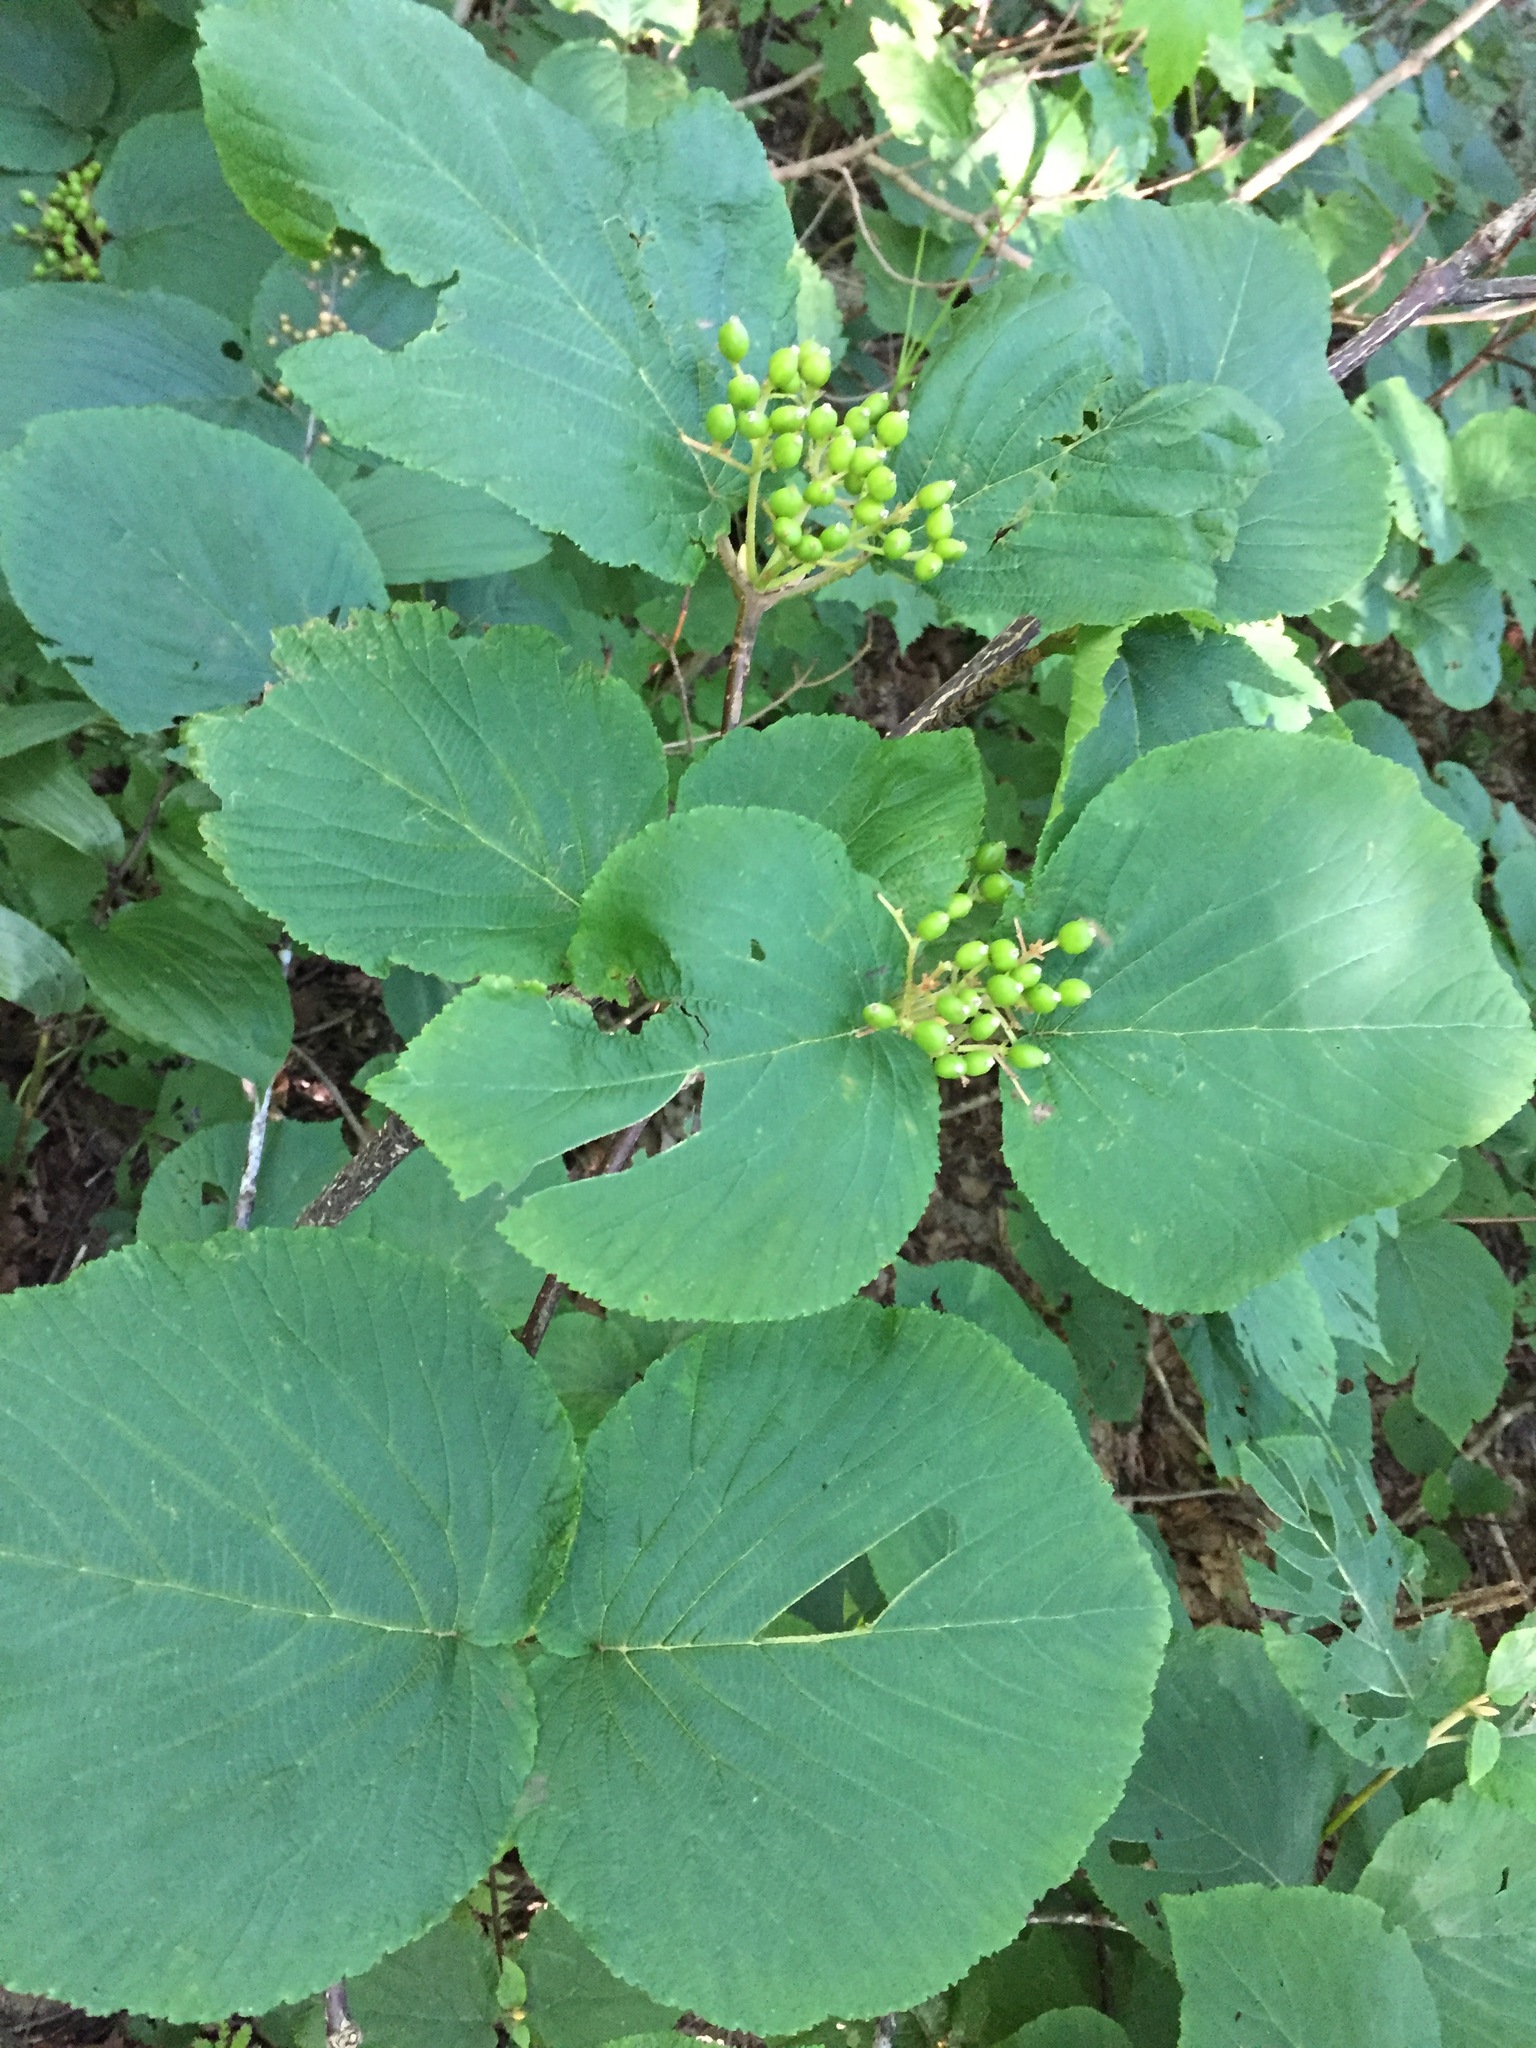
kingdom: Plantae
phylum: Tracheophyta
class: Magnoliopsida
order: Dipsacales
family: Viburnaceae
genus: Viburnum
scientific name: Viburnum lantanoides
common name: Hobblebush
